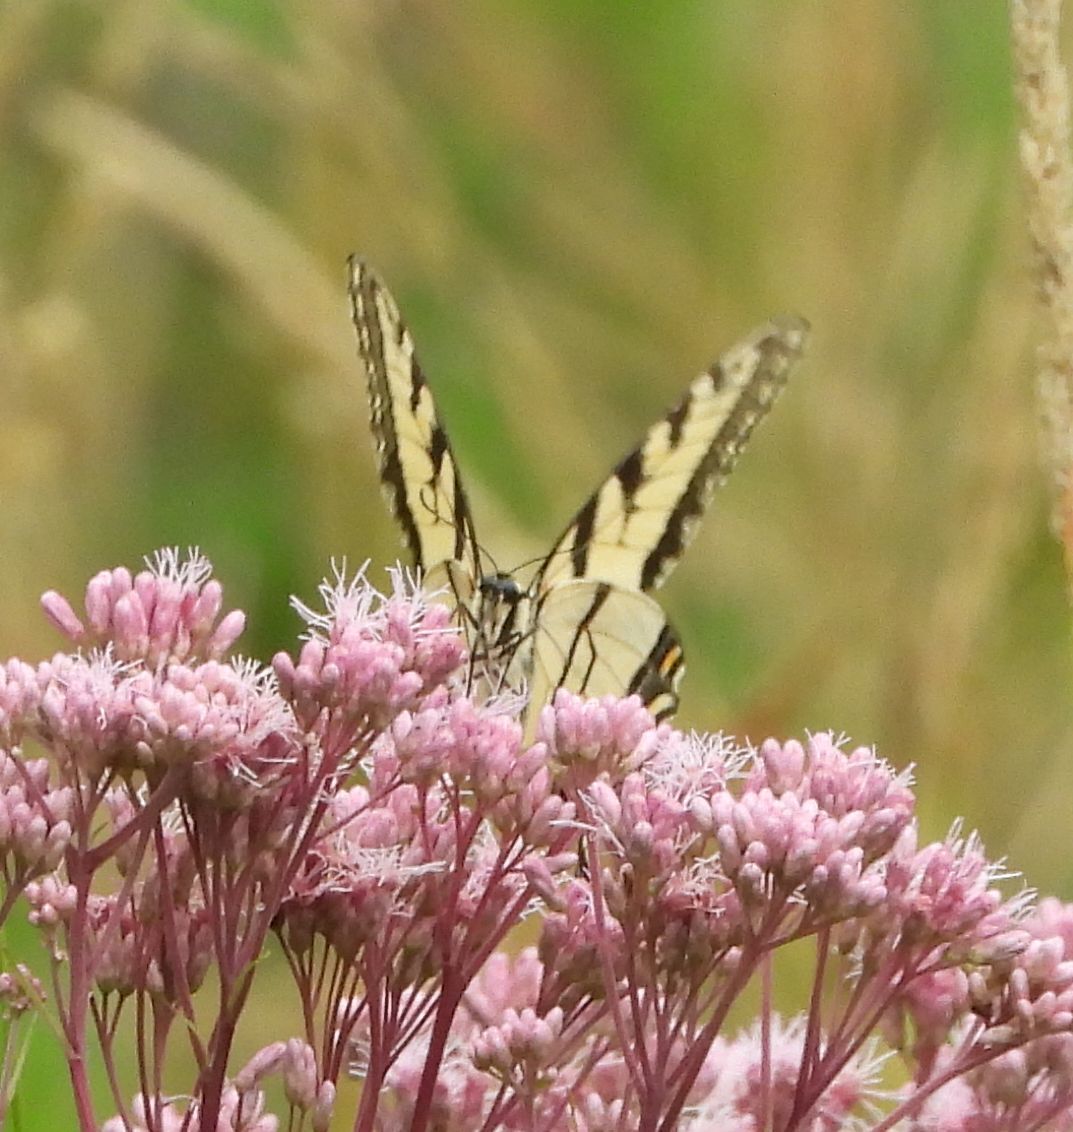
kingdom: Animalia
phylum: Arthropoda
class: Insecta
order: Lepidoptera
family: Papilionidae
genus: Papilio
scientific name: Papilio
